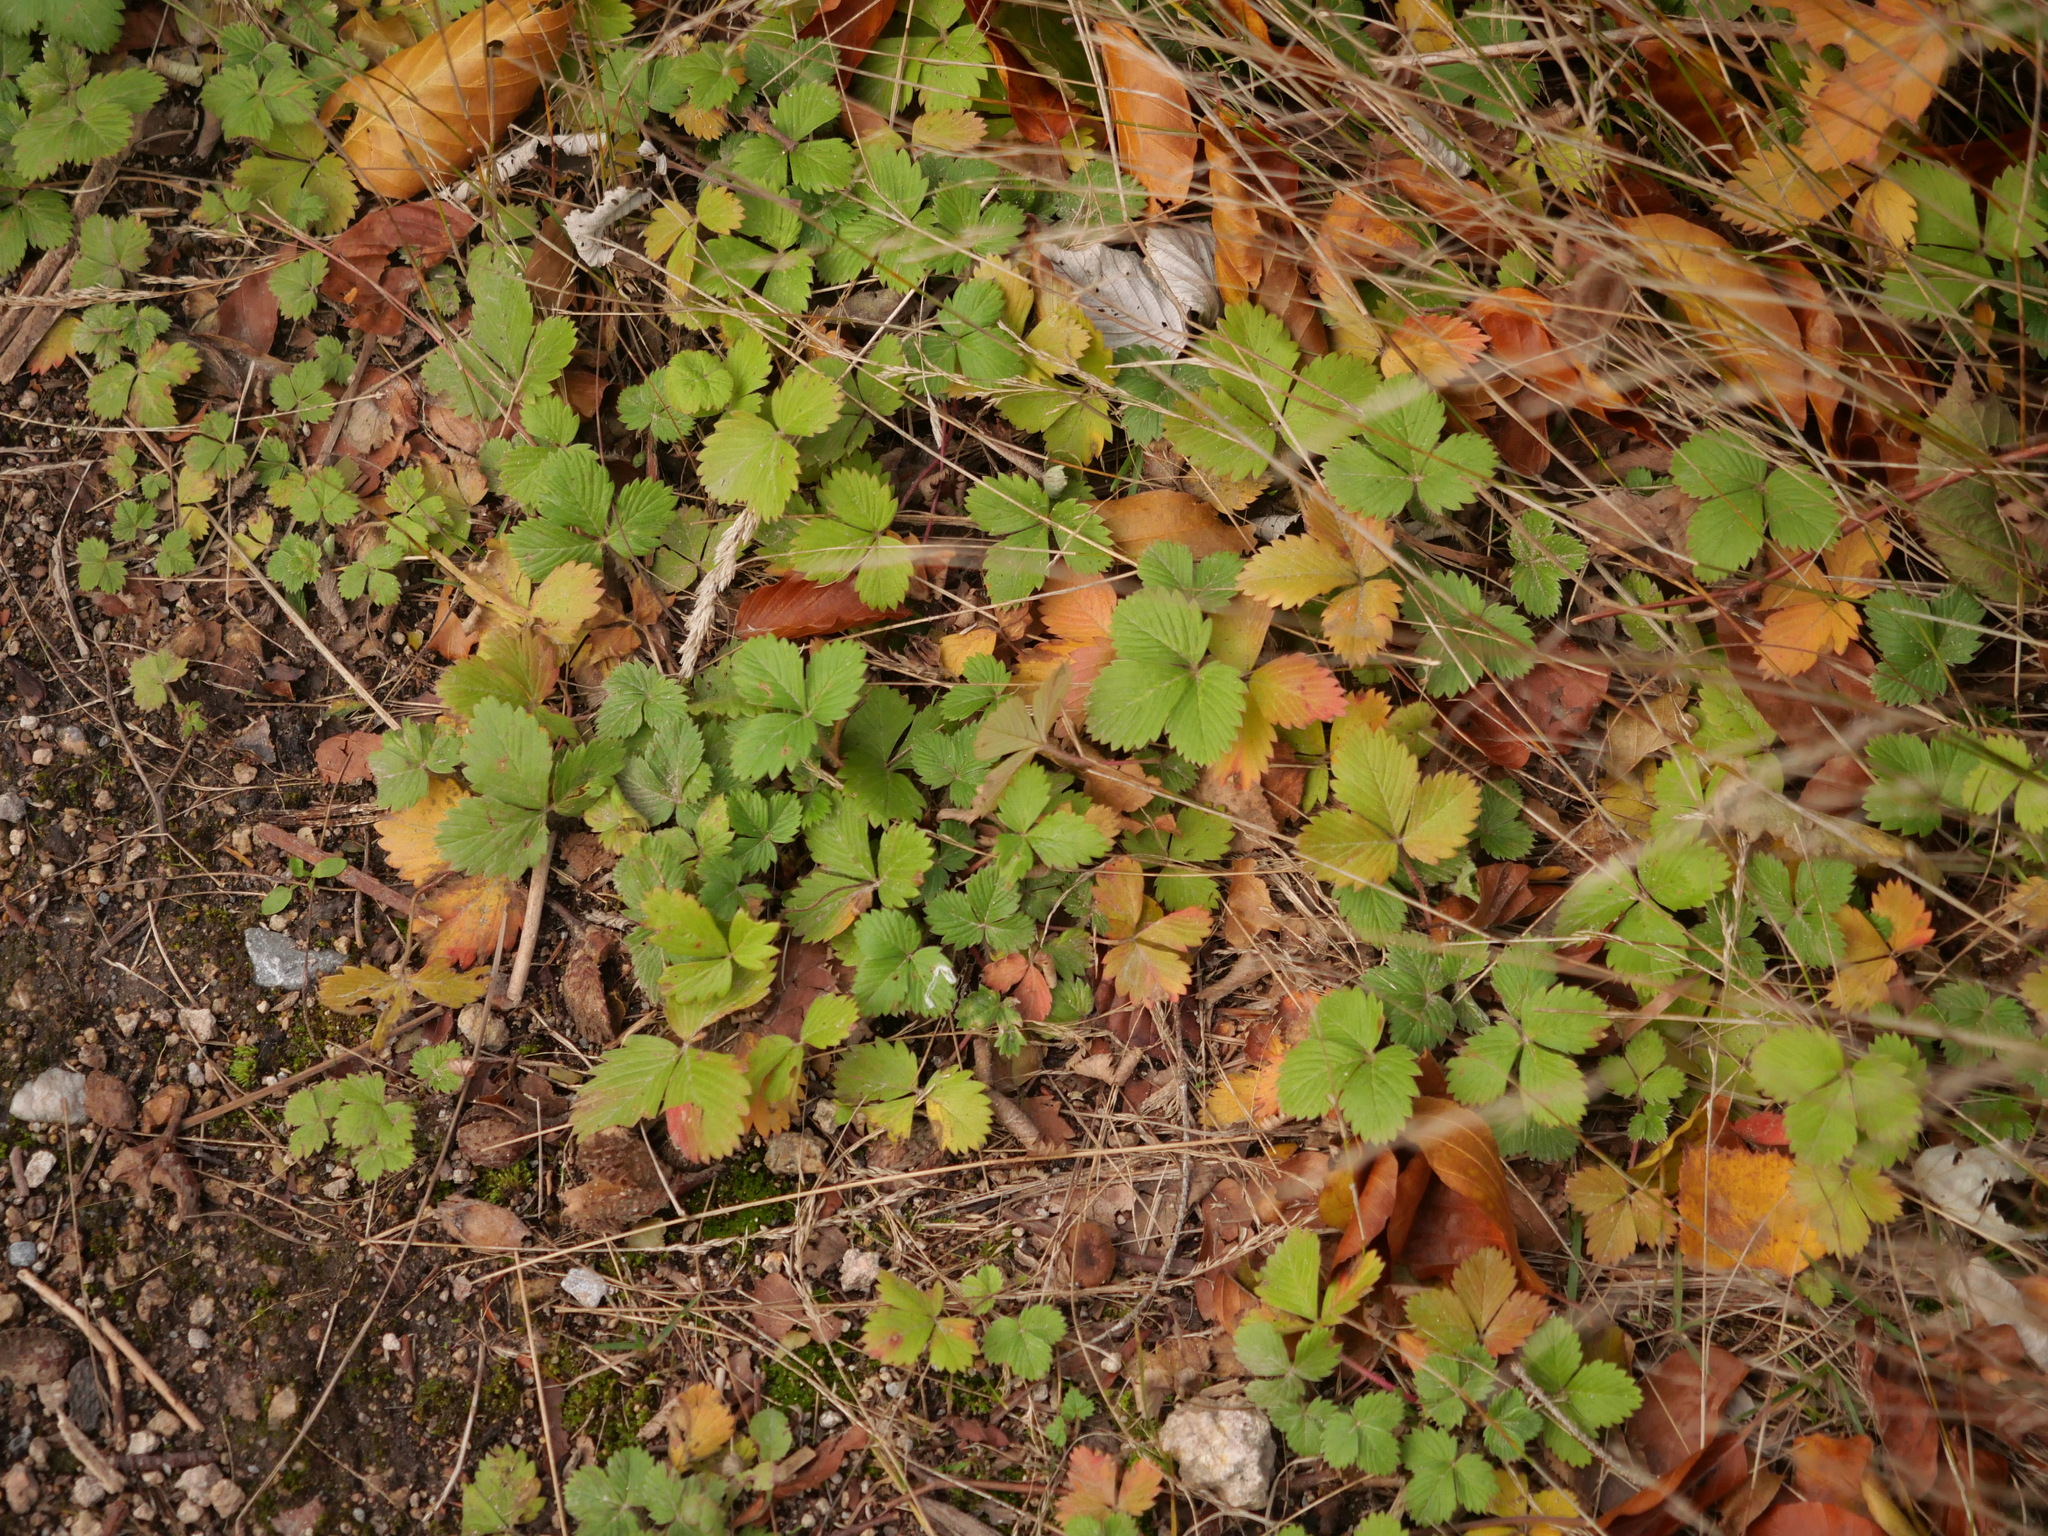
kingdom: Plantae
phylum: Tracheophyta
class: Magnoliopsida
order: Rosales
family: Rosaceae
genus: Fragaria
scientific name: Fragaria vesca
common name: Wild strawberry
